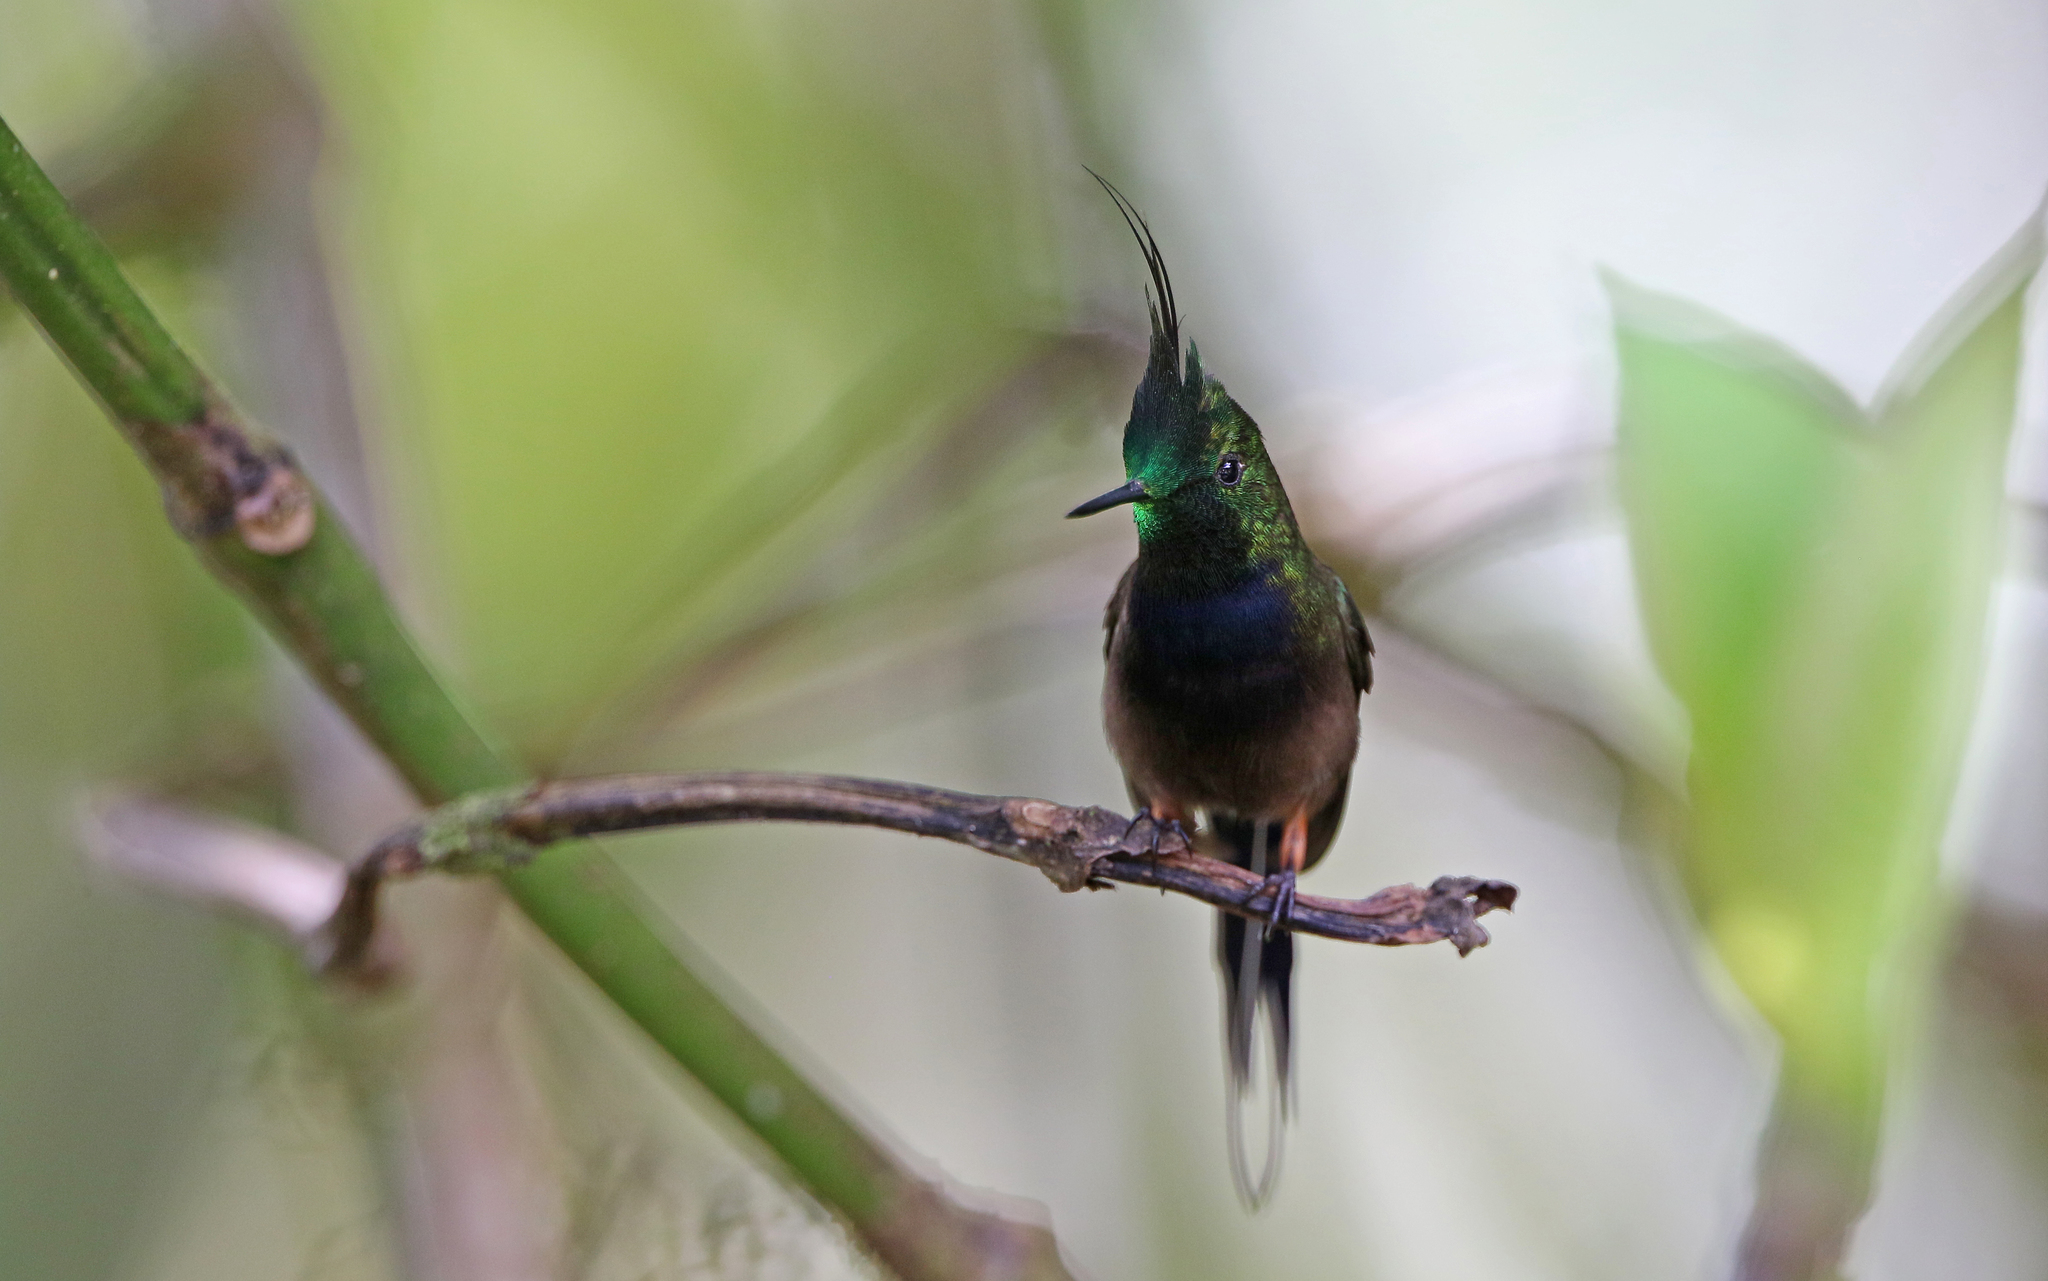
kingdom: Animalia
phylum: Chordata
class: Aves
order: Apodiformes
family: Trochilidae
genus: Discosura
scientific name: Discosura popelairii
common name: Wire-crested thorntail
